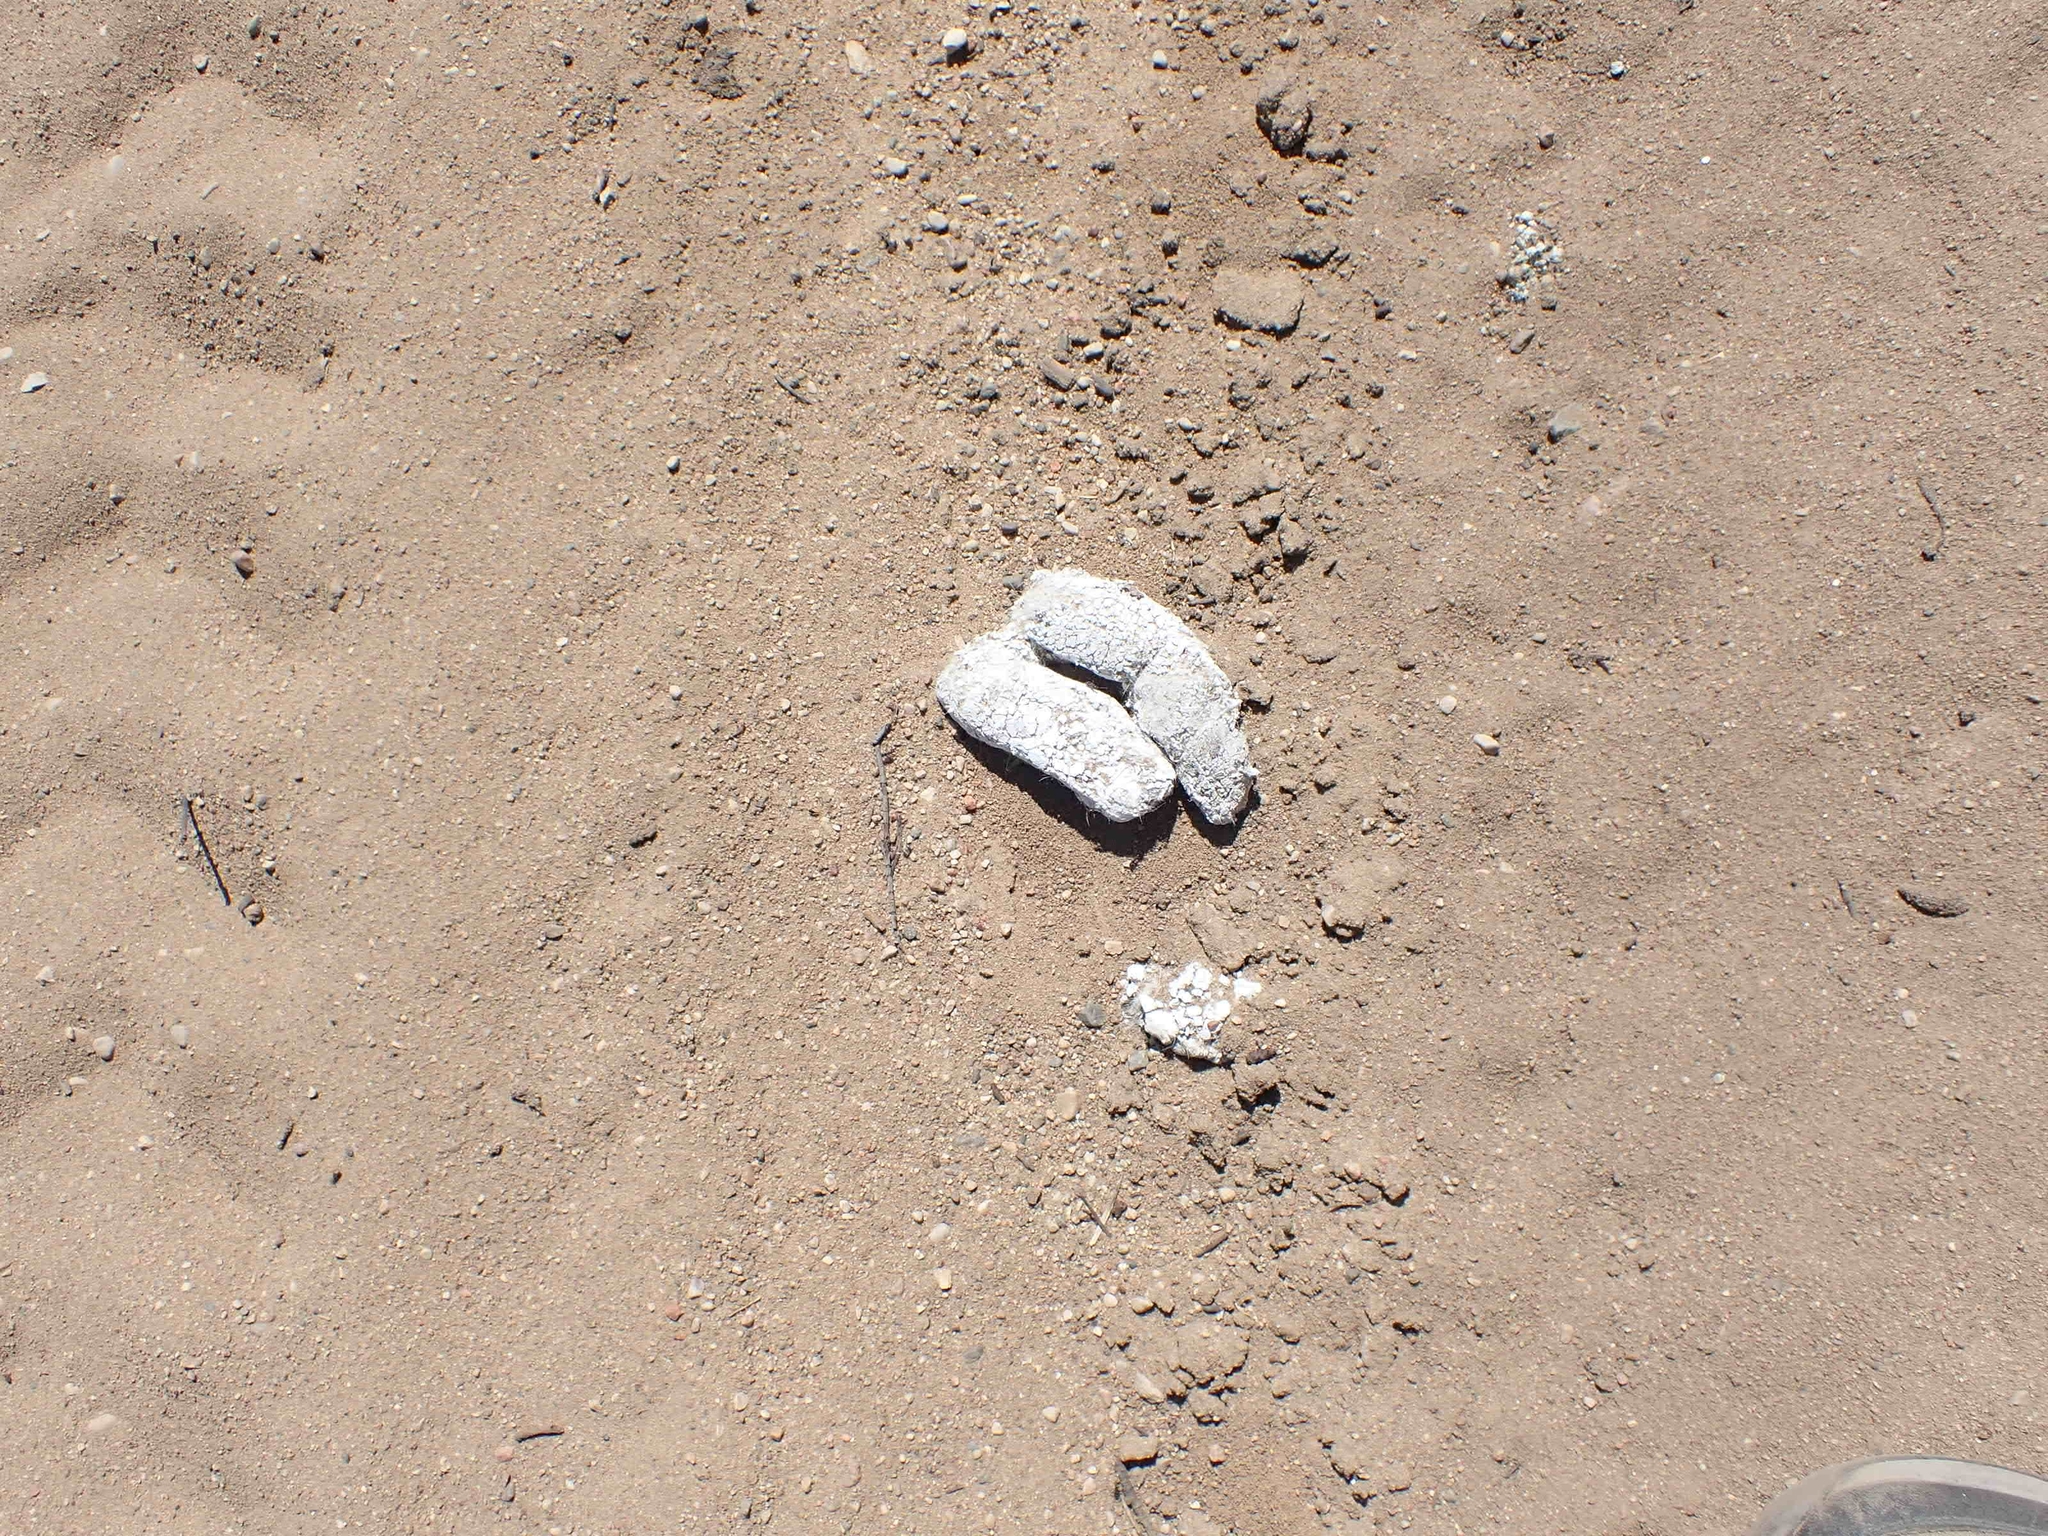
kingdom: Animalia
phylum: Chordata
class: Mammalia
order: Carnivora
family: Canidae
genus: Canis
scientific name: Canis lupus
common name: Gray wolf
